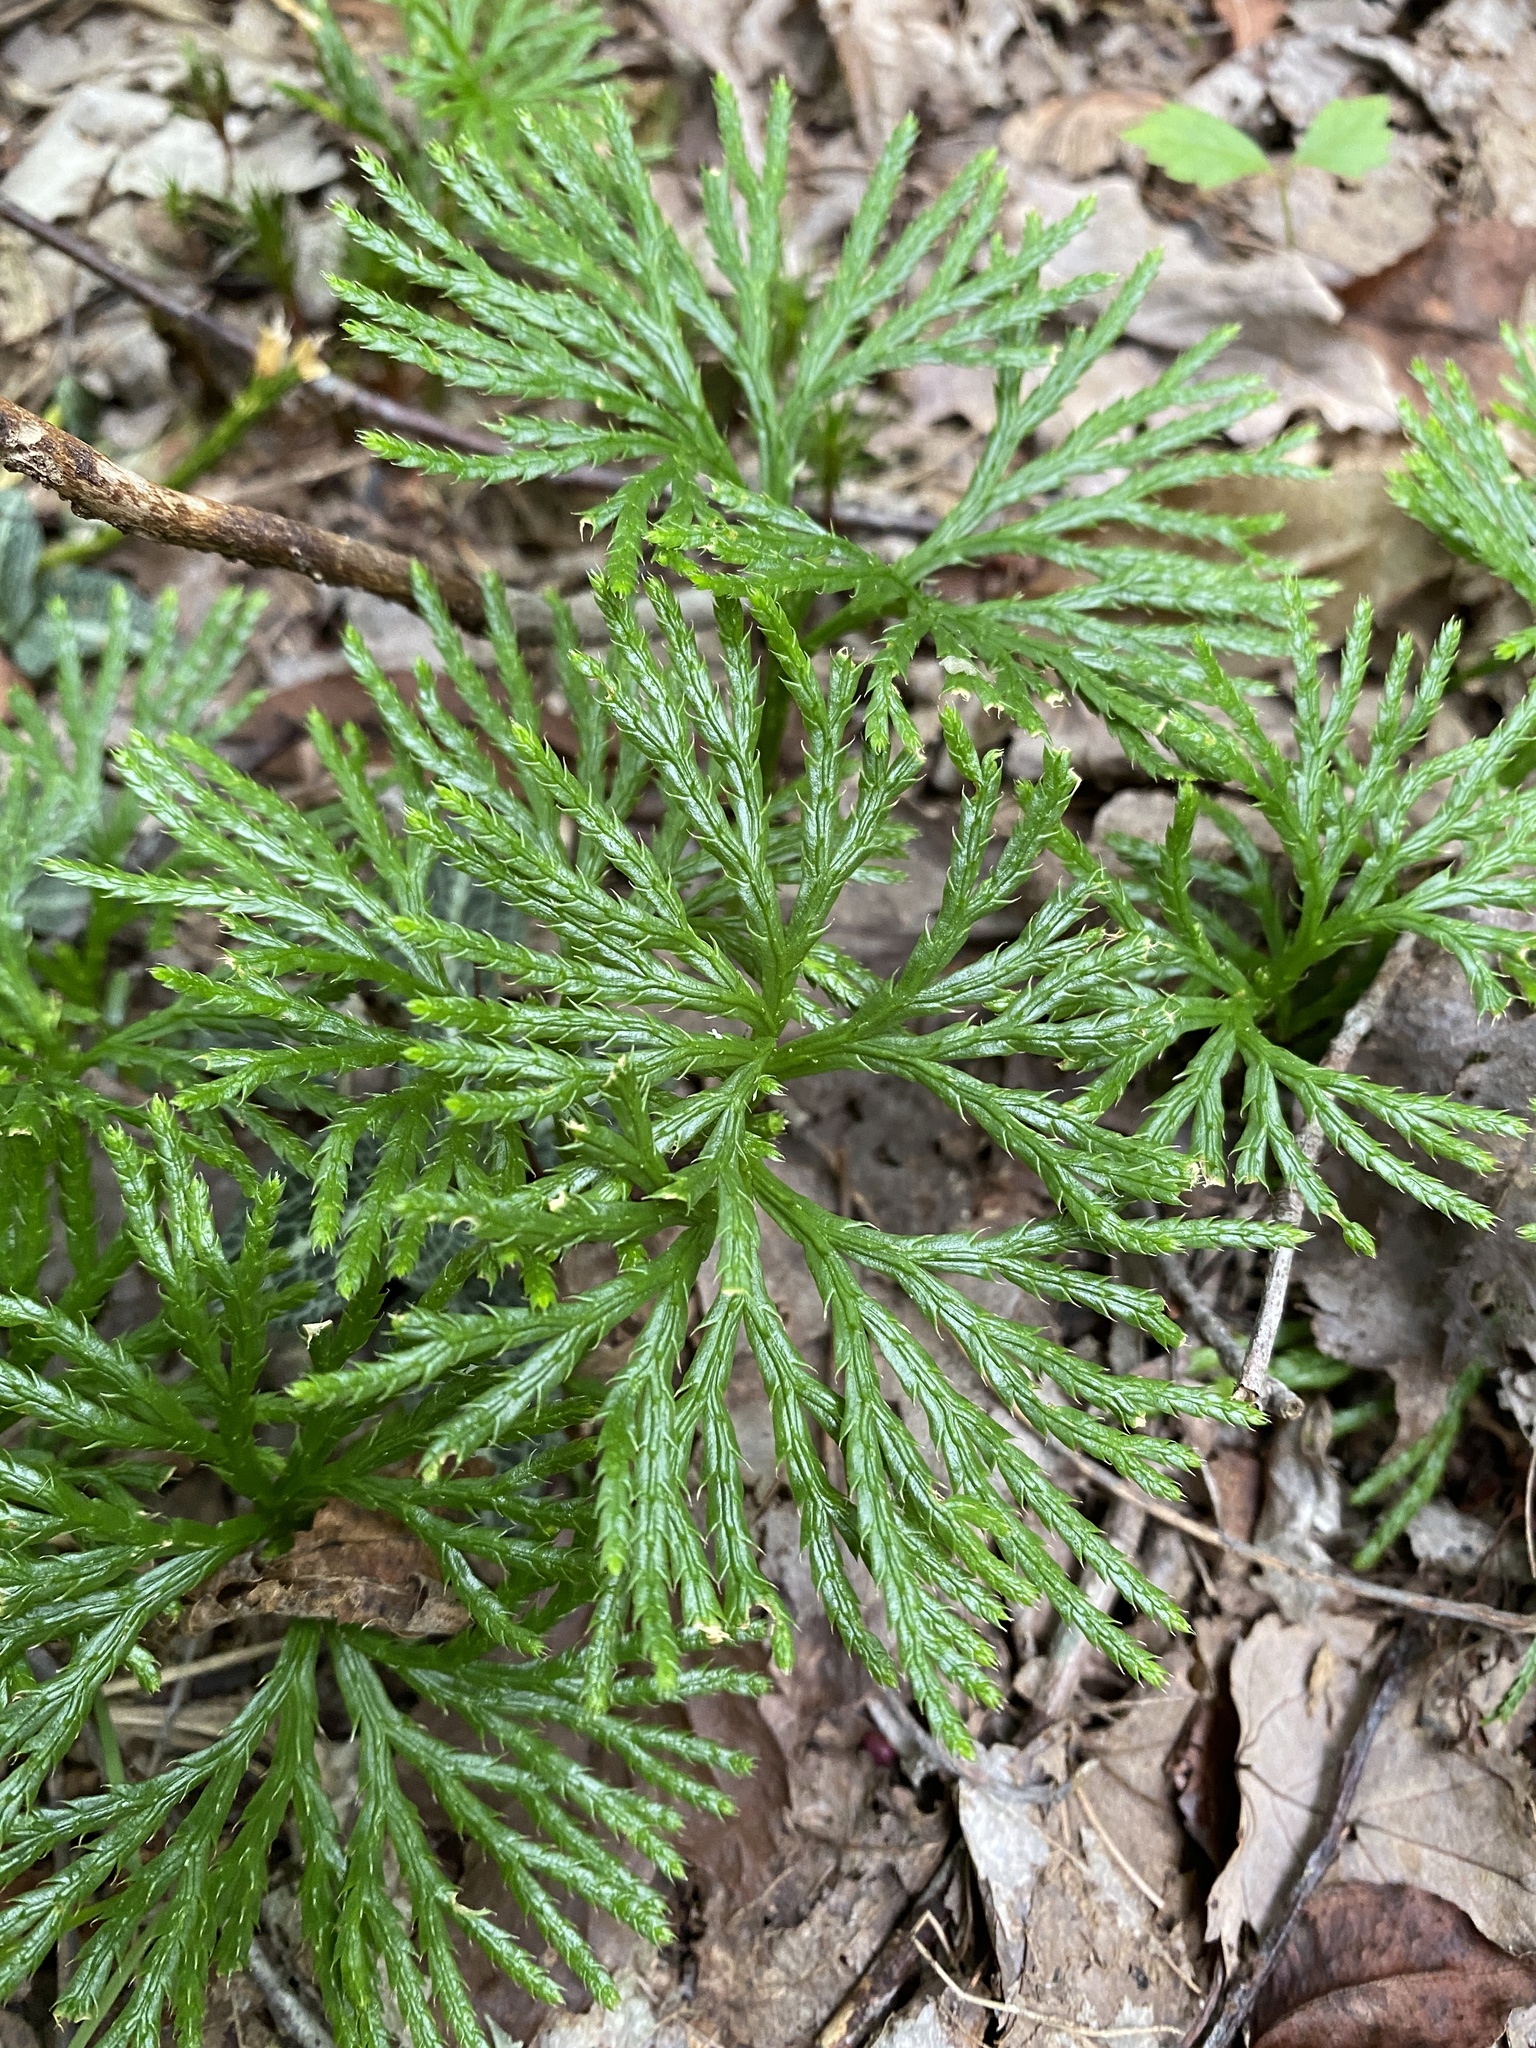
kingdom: Plantae
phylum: Tracheophyta
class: Lycopodiopsida
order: Lycopodiales
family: Lycopodiaceae
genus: Diphasiastrum
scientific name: Diphasiastrum digitatum
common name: Southern running-pine
